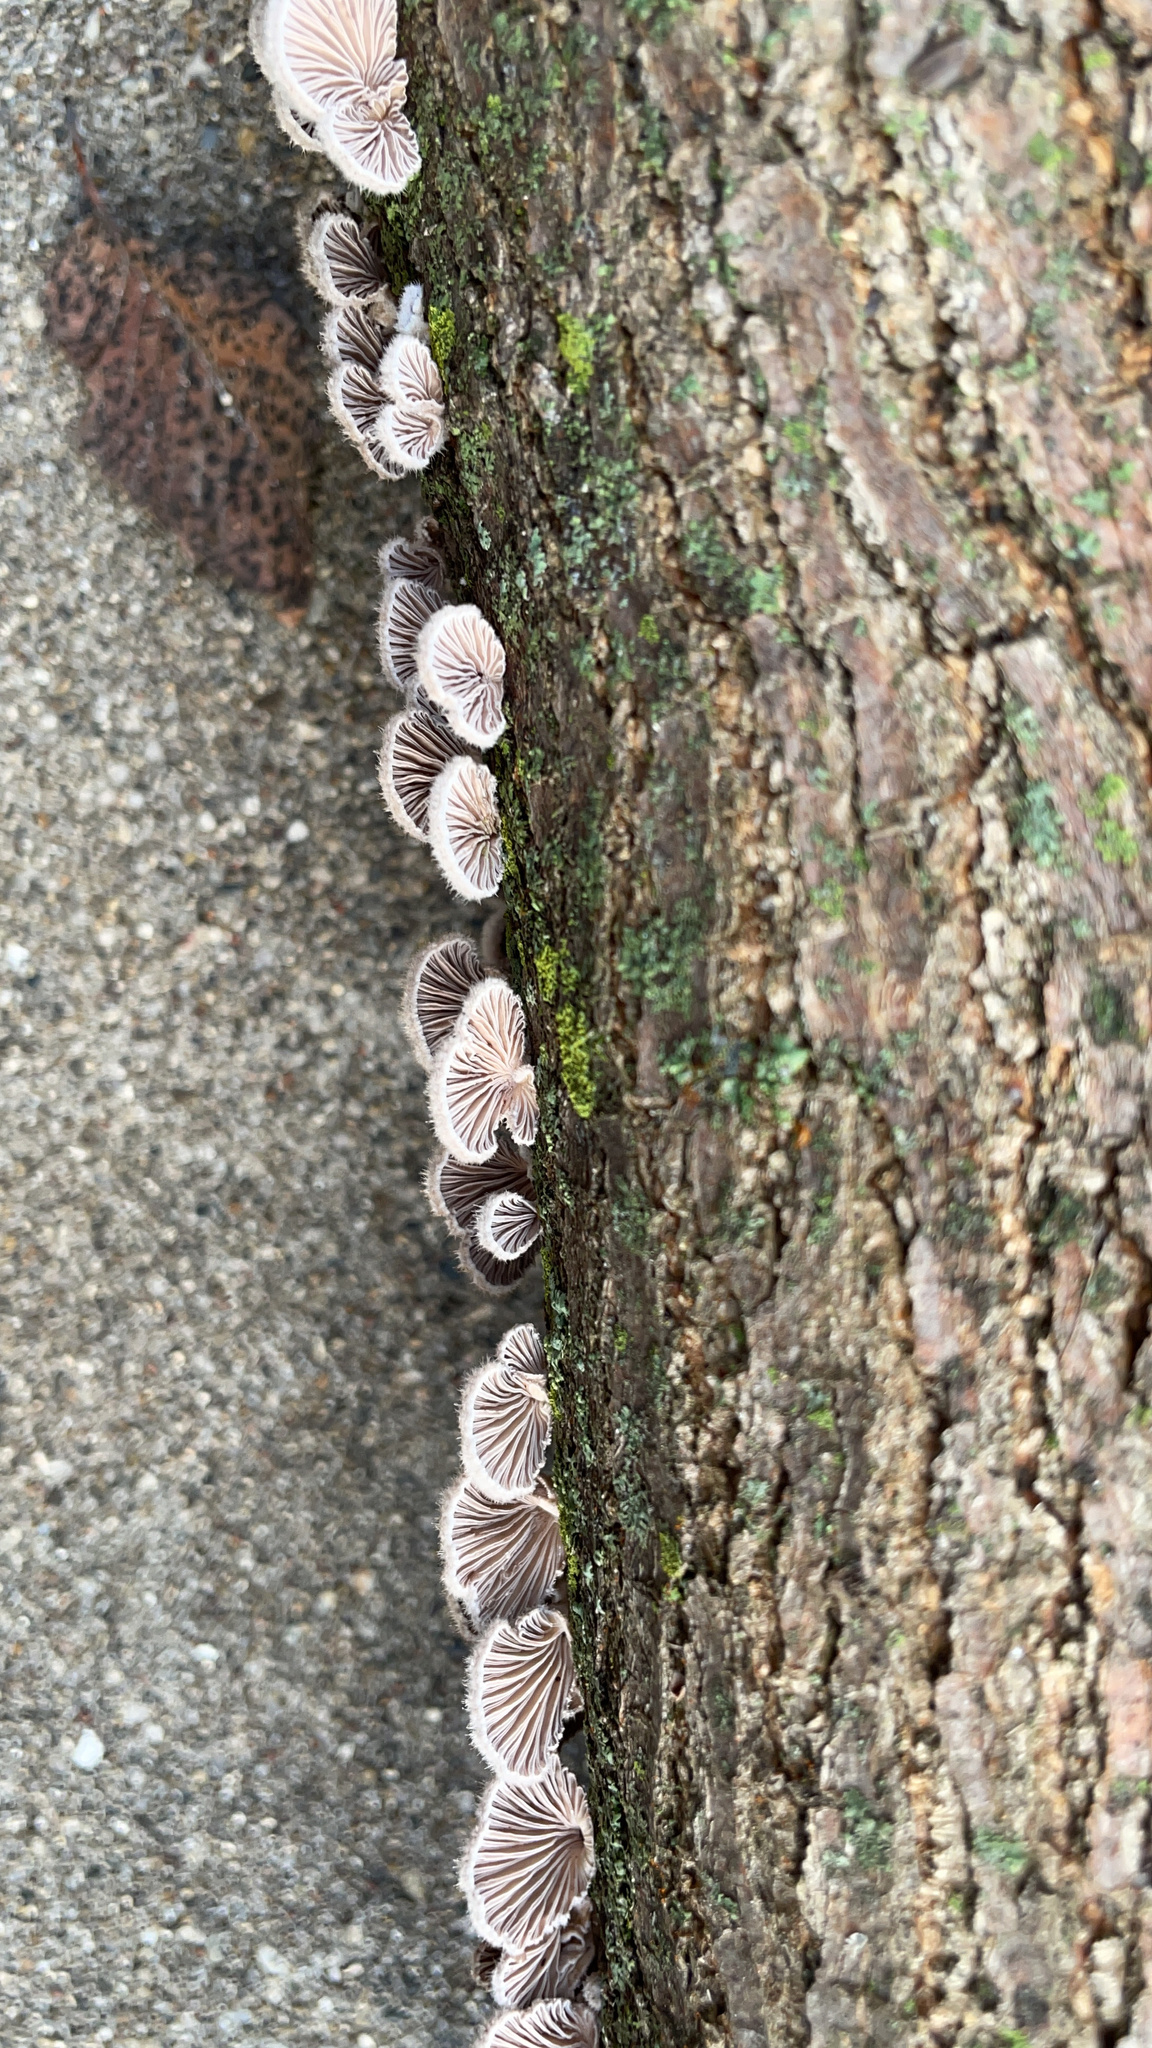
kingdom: Fungi
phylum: Basidiomycota
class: Agaricomycetes
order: Agaricales
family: Schizophyllaceae
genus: Schizophyllum
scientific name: Schizophyllum commune
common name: Common porecrust
